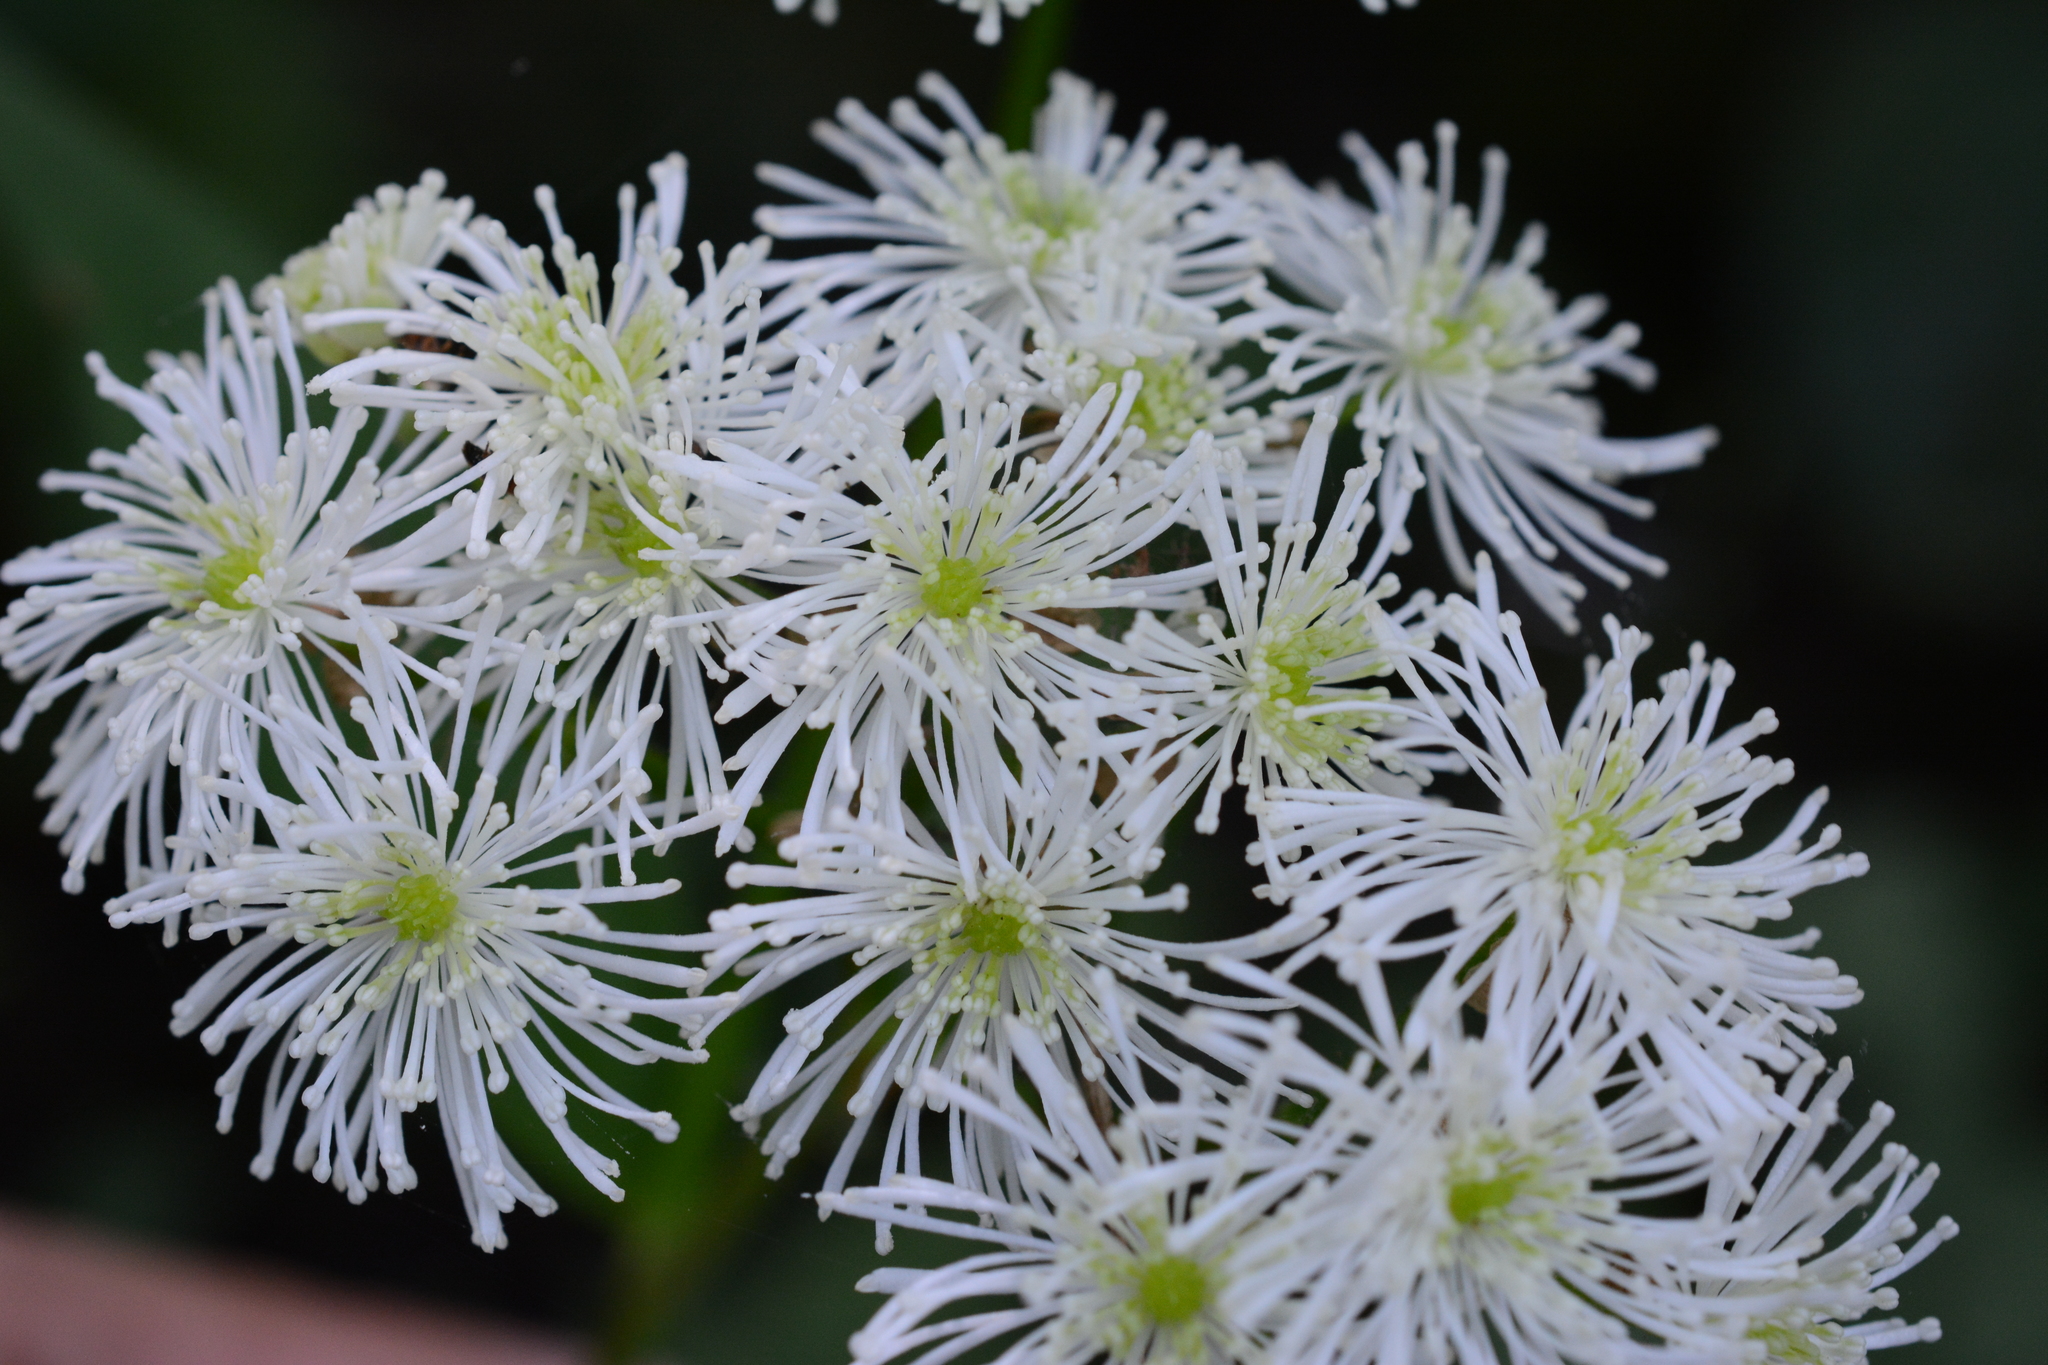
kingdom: Plantae
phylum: Tracheophyta
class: Magnoliopsida
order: Ranunculales
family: Ranunculaceae
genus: Trautvetteria
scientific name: Trautvetteria carolinensis
